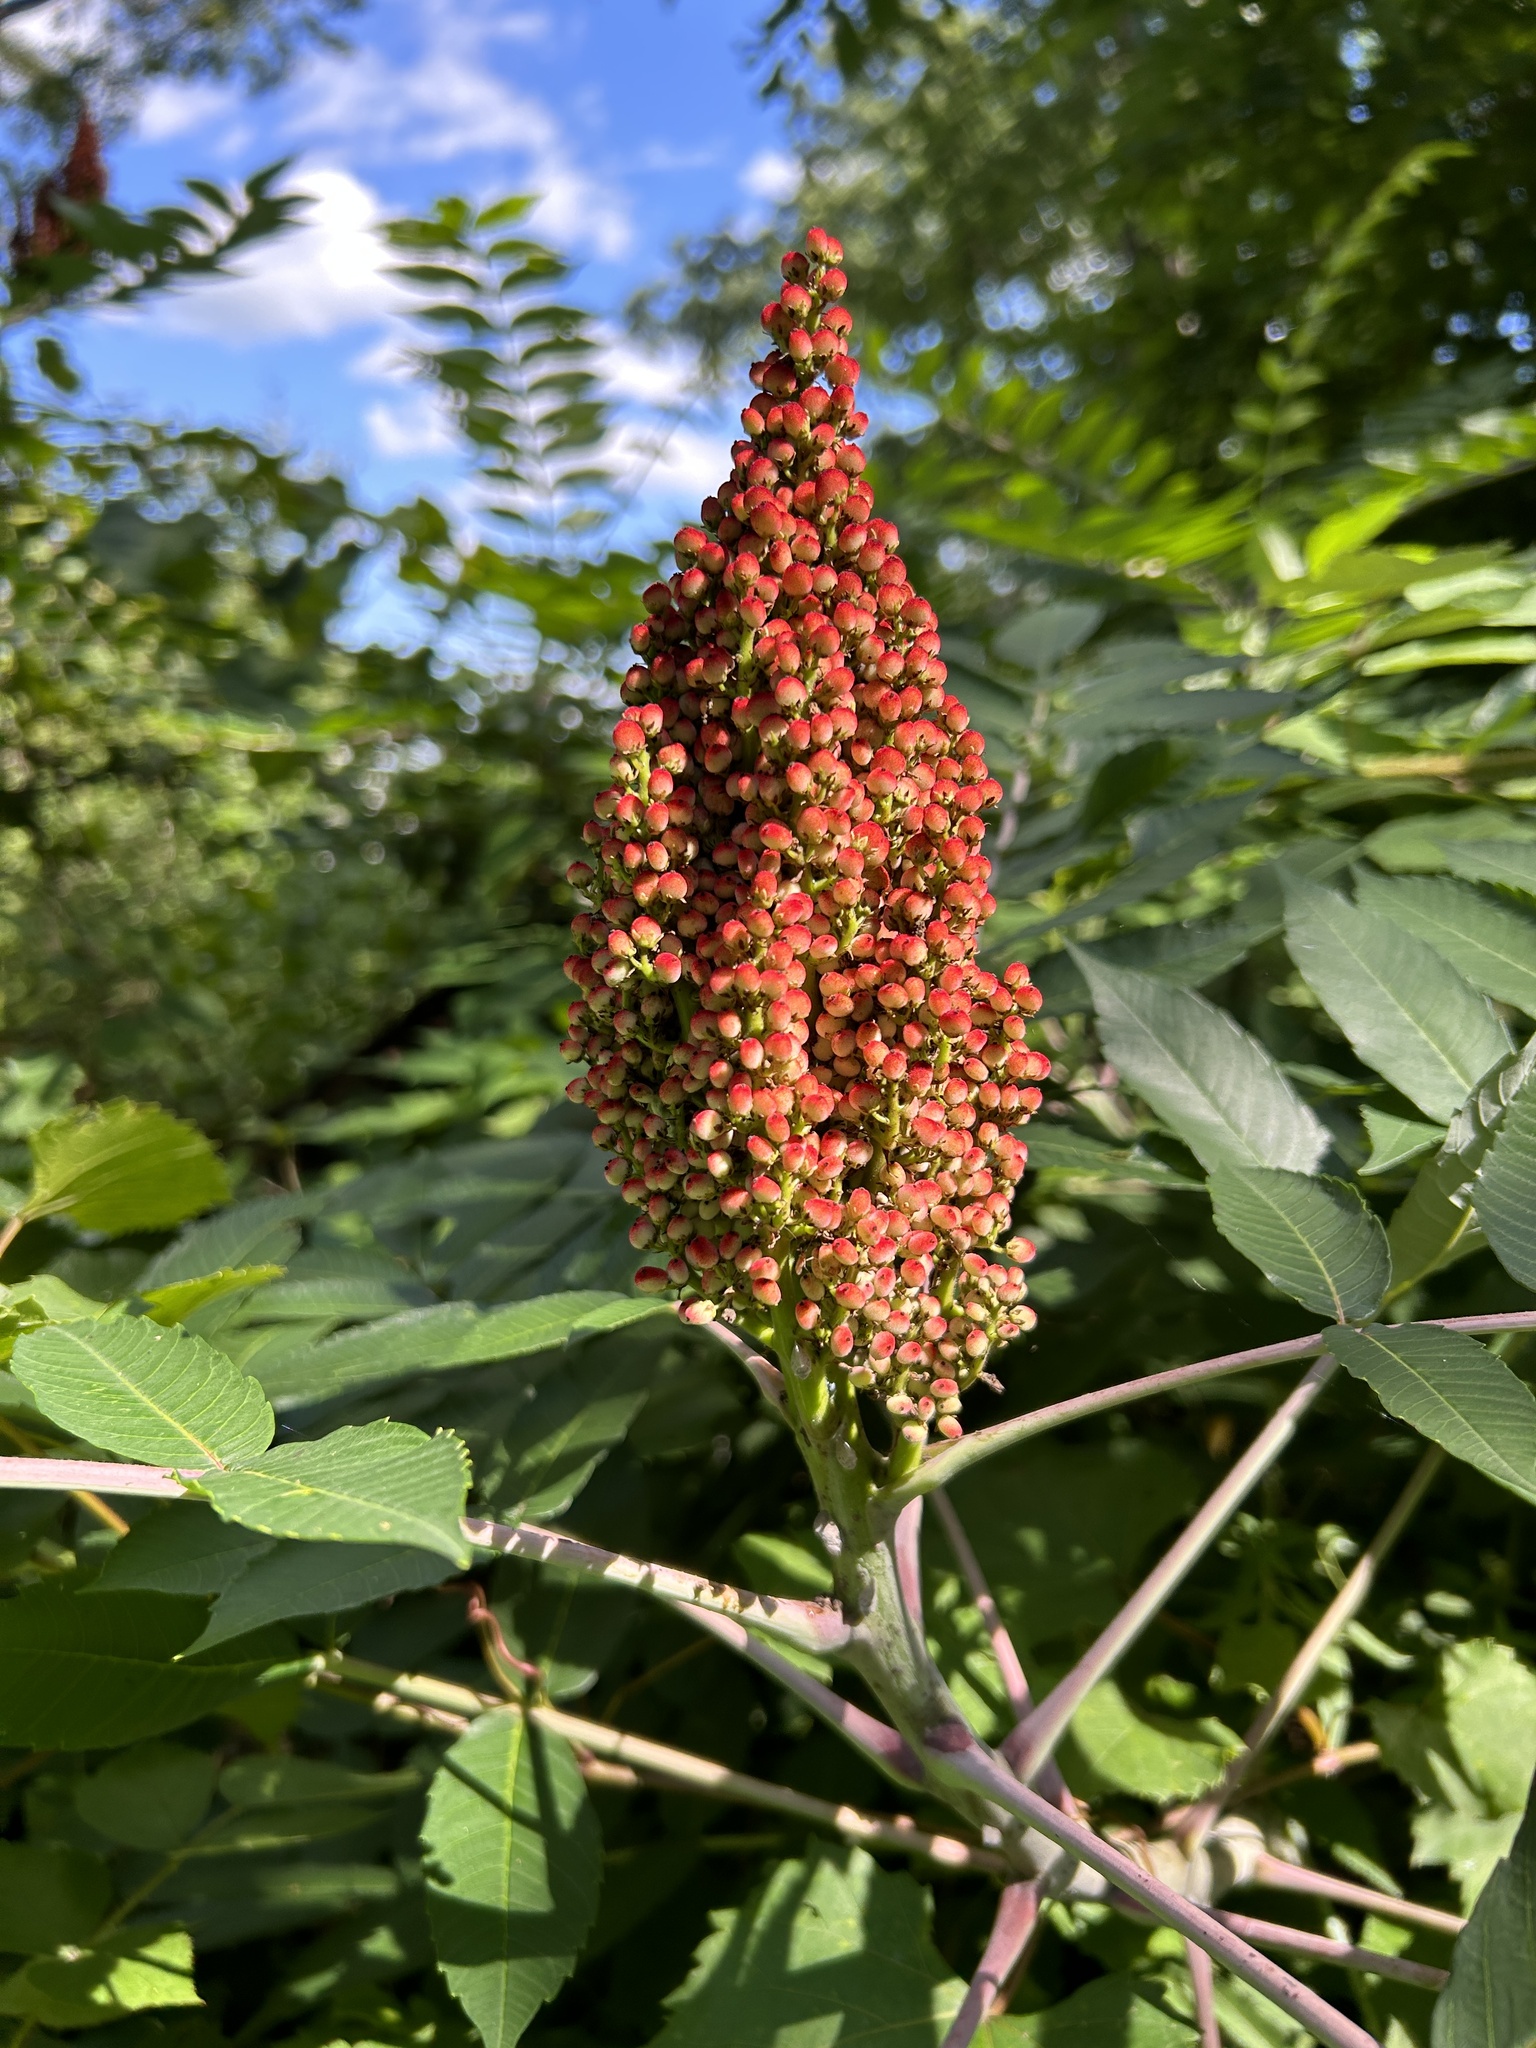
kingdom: Plantae
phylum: Tracheophyta
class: Magnoliopsida
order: Sapindales
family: Anacardiaceae
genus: Rhus
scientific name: Rhus glabra
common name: Scarlet sumac
